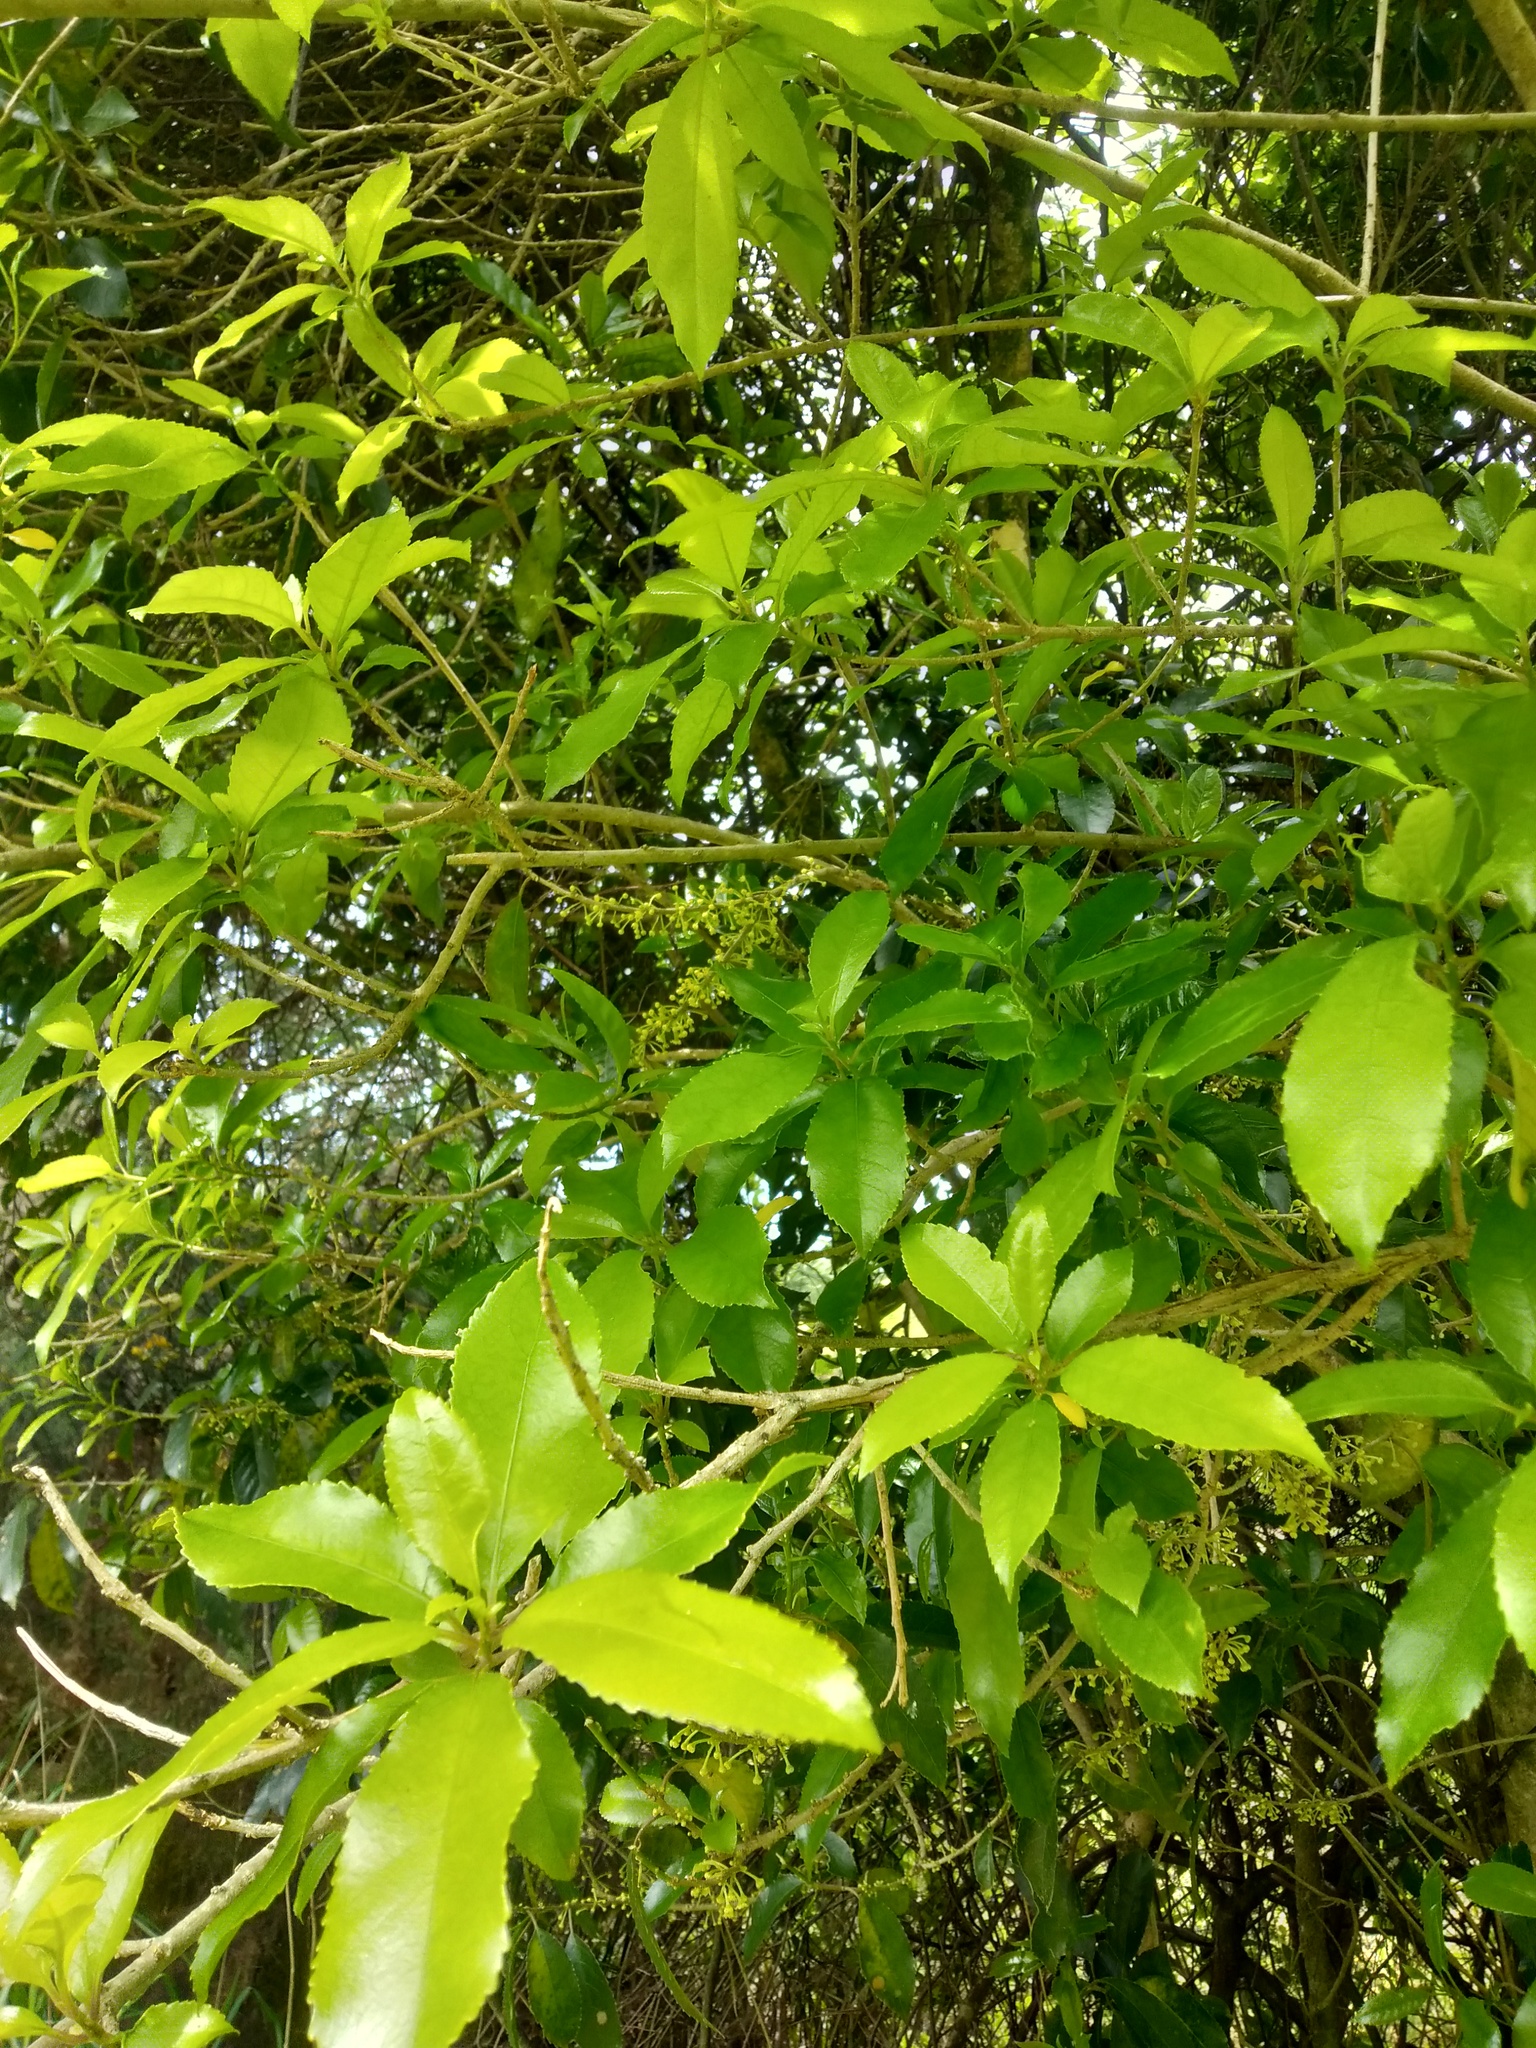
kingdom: Plantae
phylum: Tracheophyta
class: Magnoliopsida
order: Malpighiales
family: Violaceae
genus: Melicytus
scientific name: Melicytus ramiflorus
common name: Mahoe
